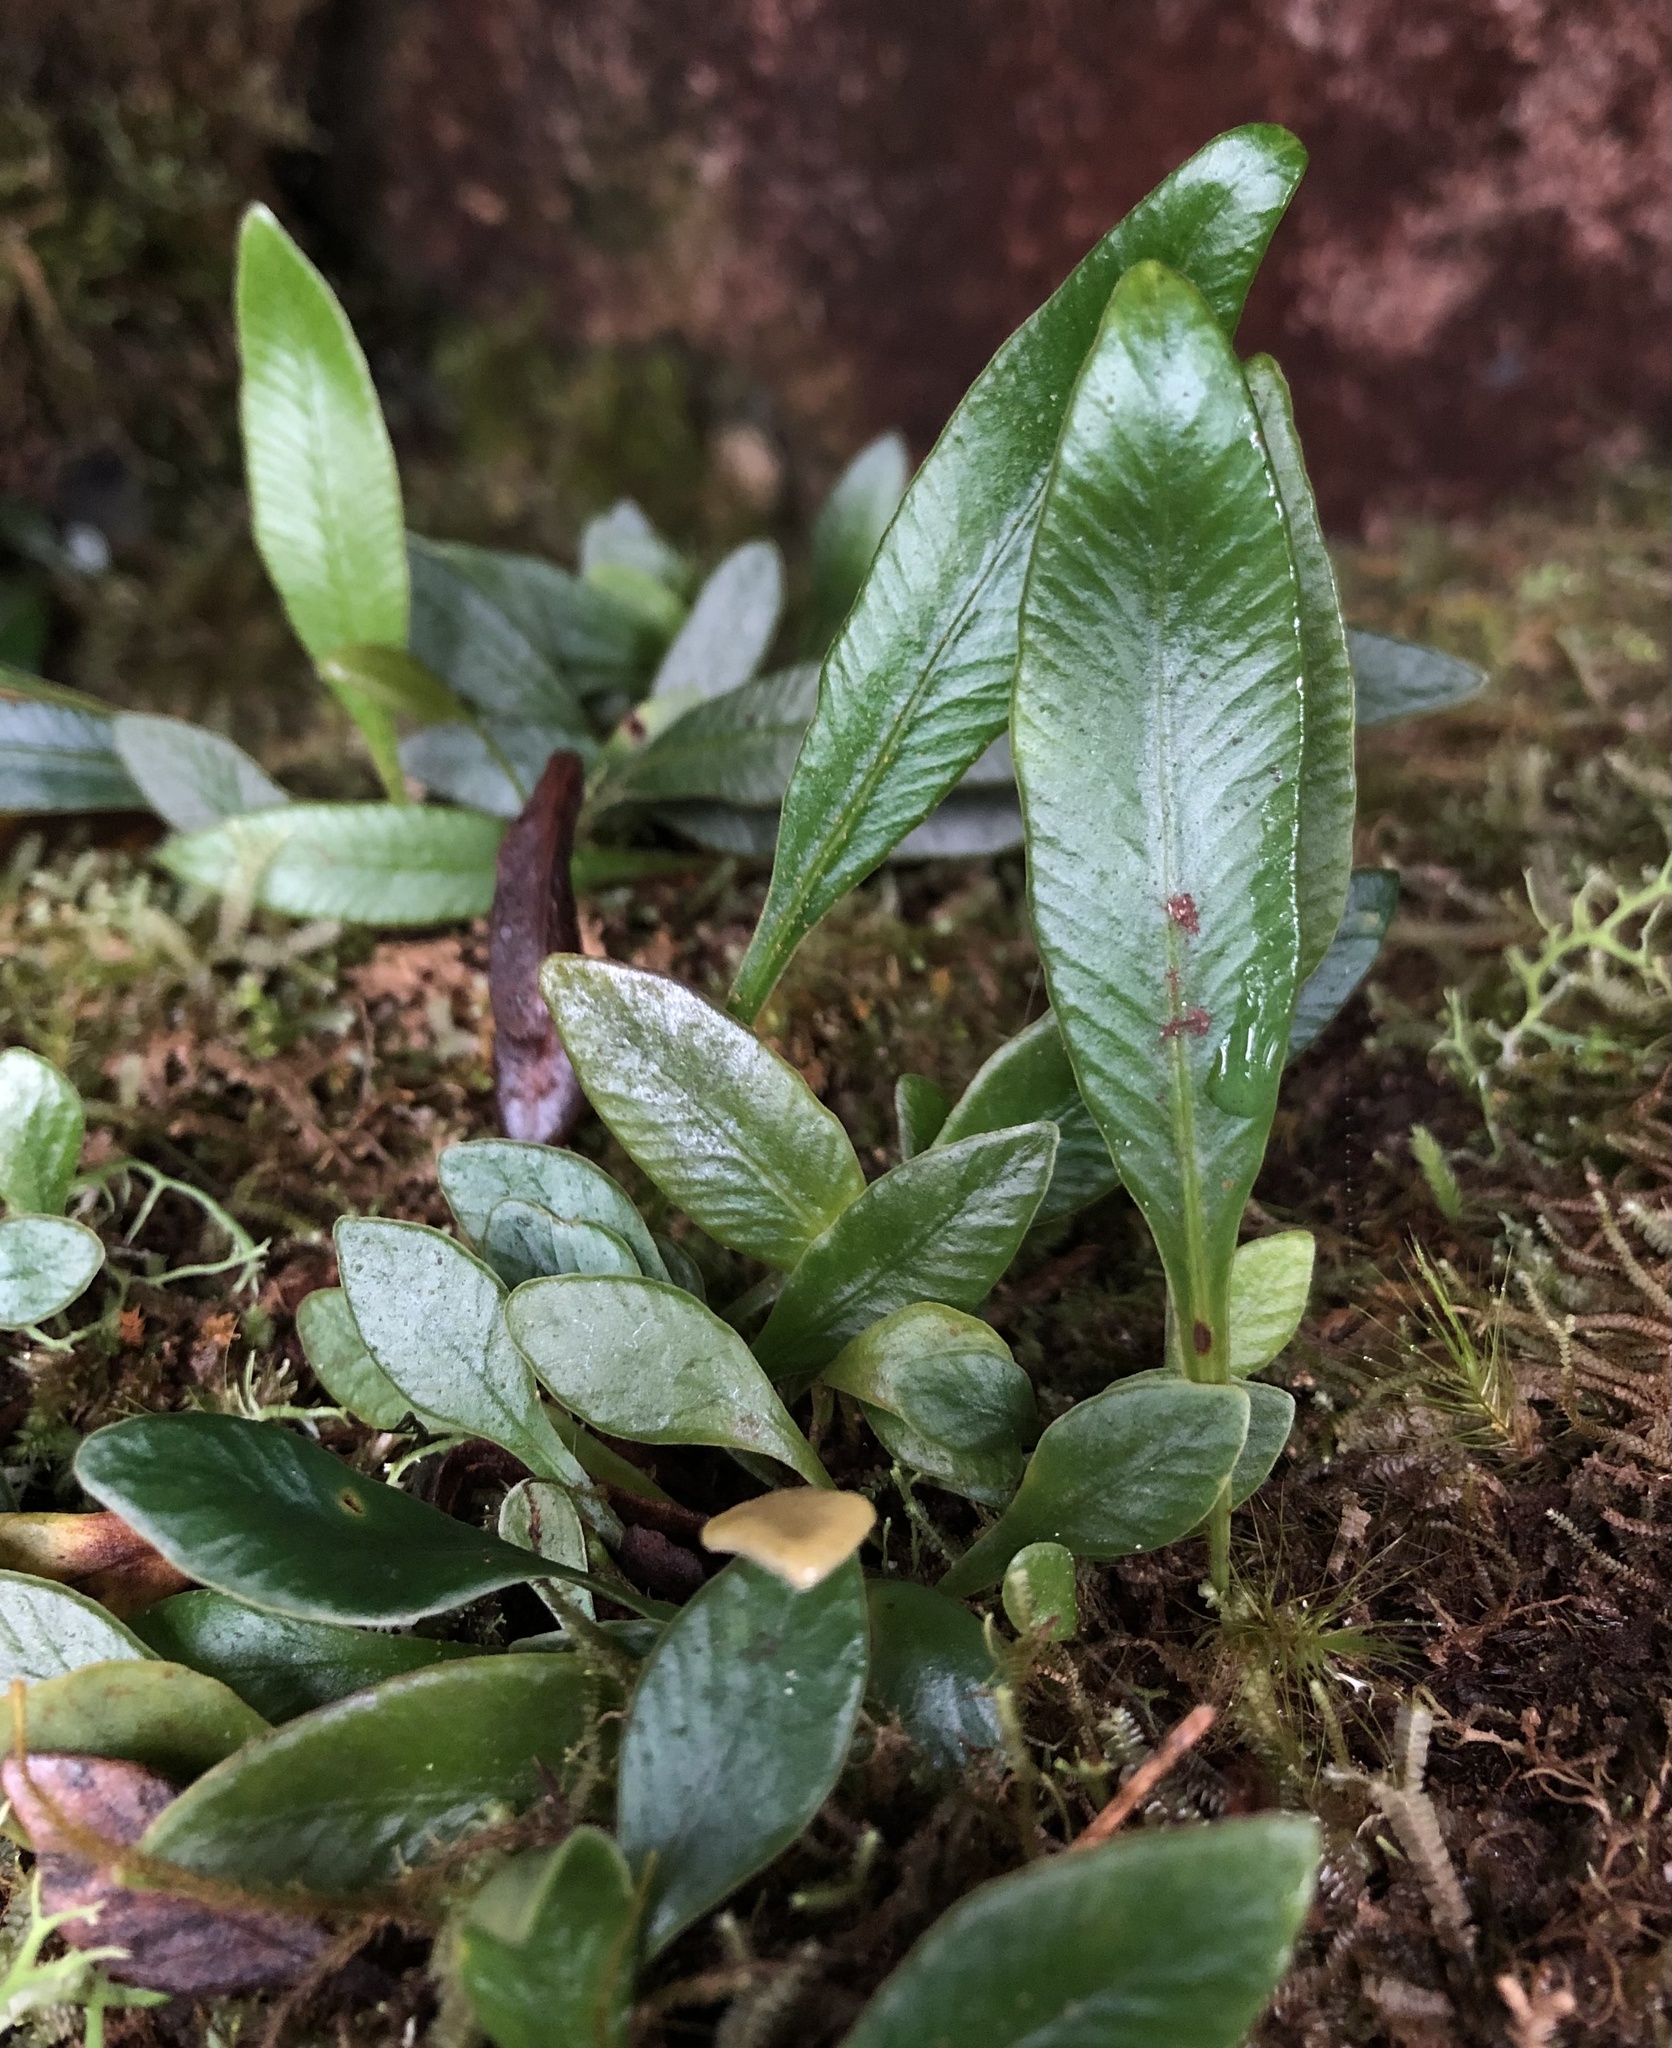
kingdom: Plantae
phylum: Tracheophyta
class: Polypodiopsida
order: Polypodiales
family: Dryopteridaceae
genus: Elaphoglossum
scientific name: Elaphoglossum queenslandicum
